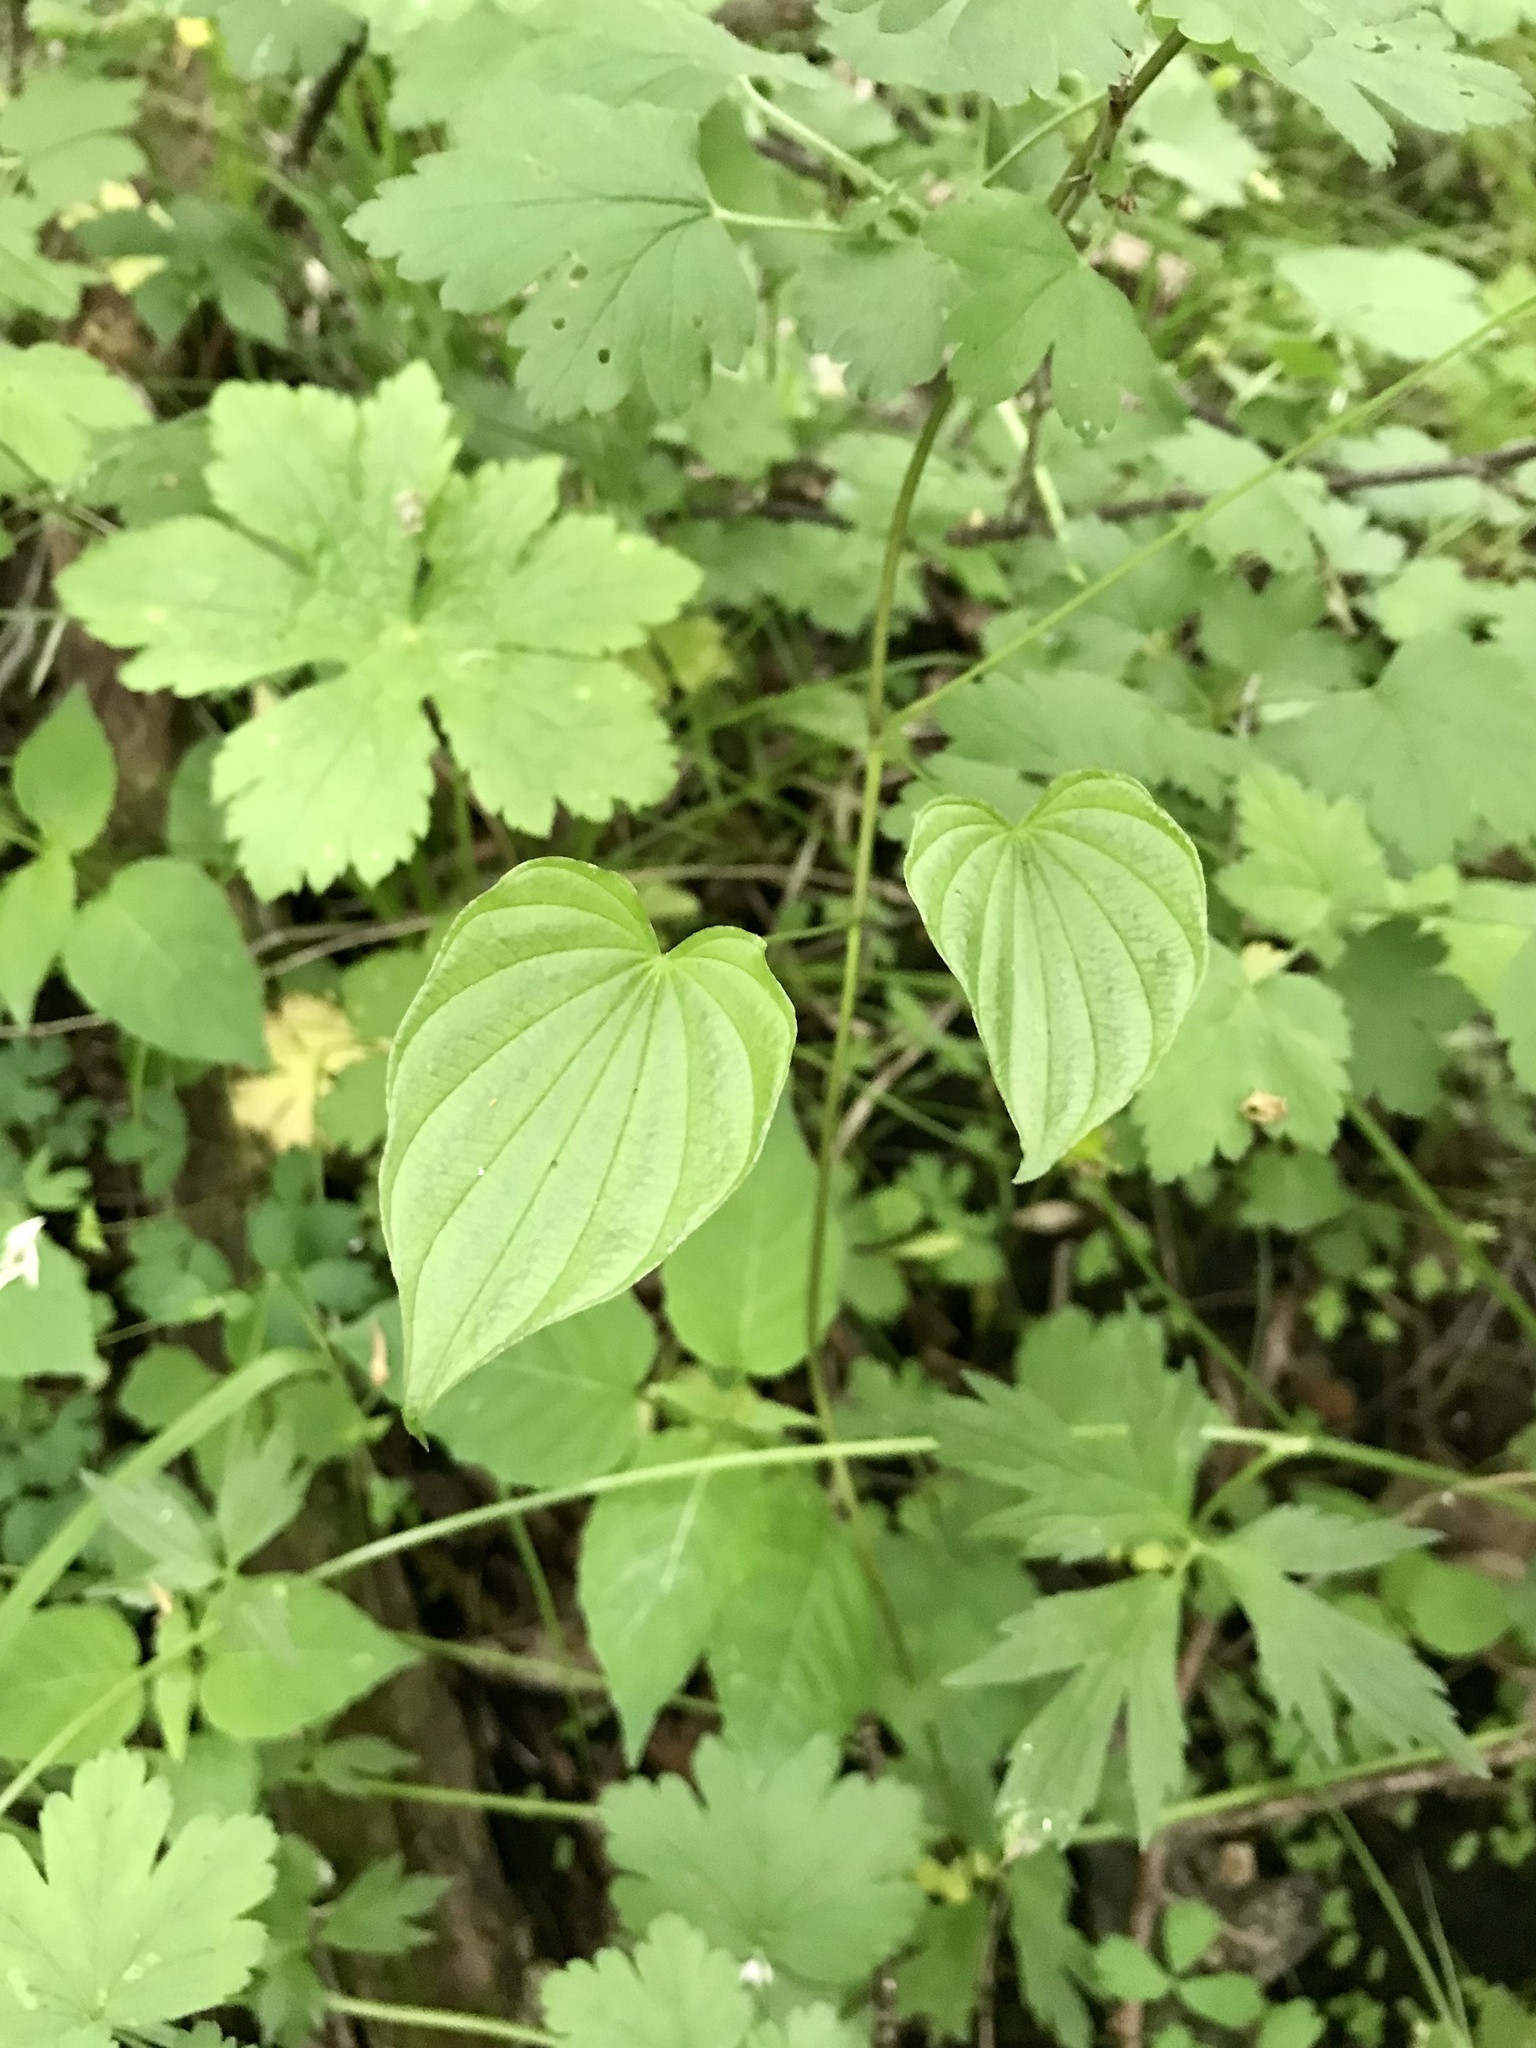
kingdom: Plantae
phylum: Tracheophyta
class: Liliopsida
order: Dioscoreales
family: Dioscoreaceae
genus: Dioscorea
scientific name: Dioscorea villosa
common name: Wild yam
